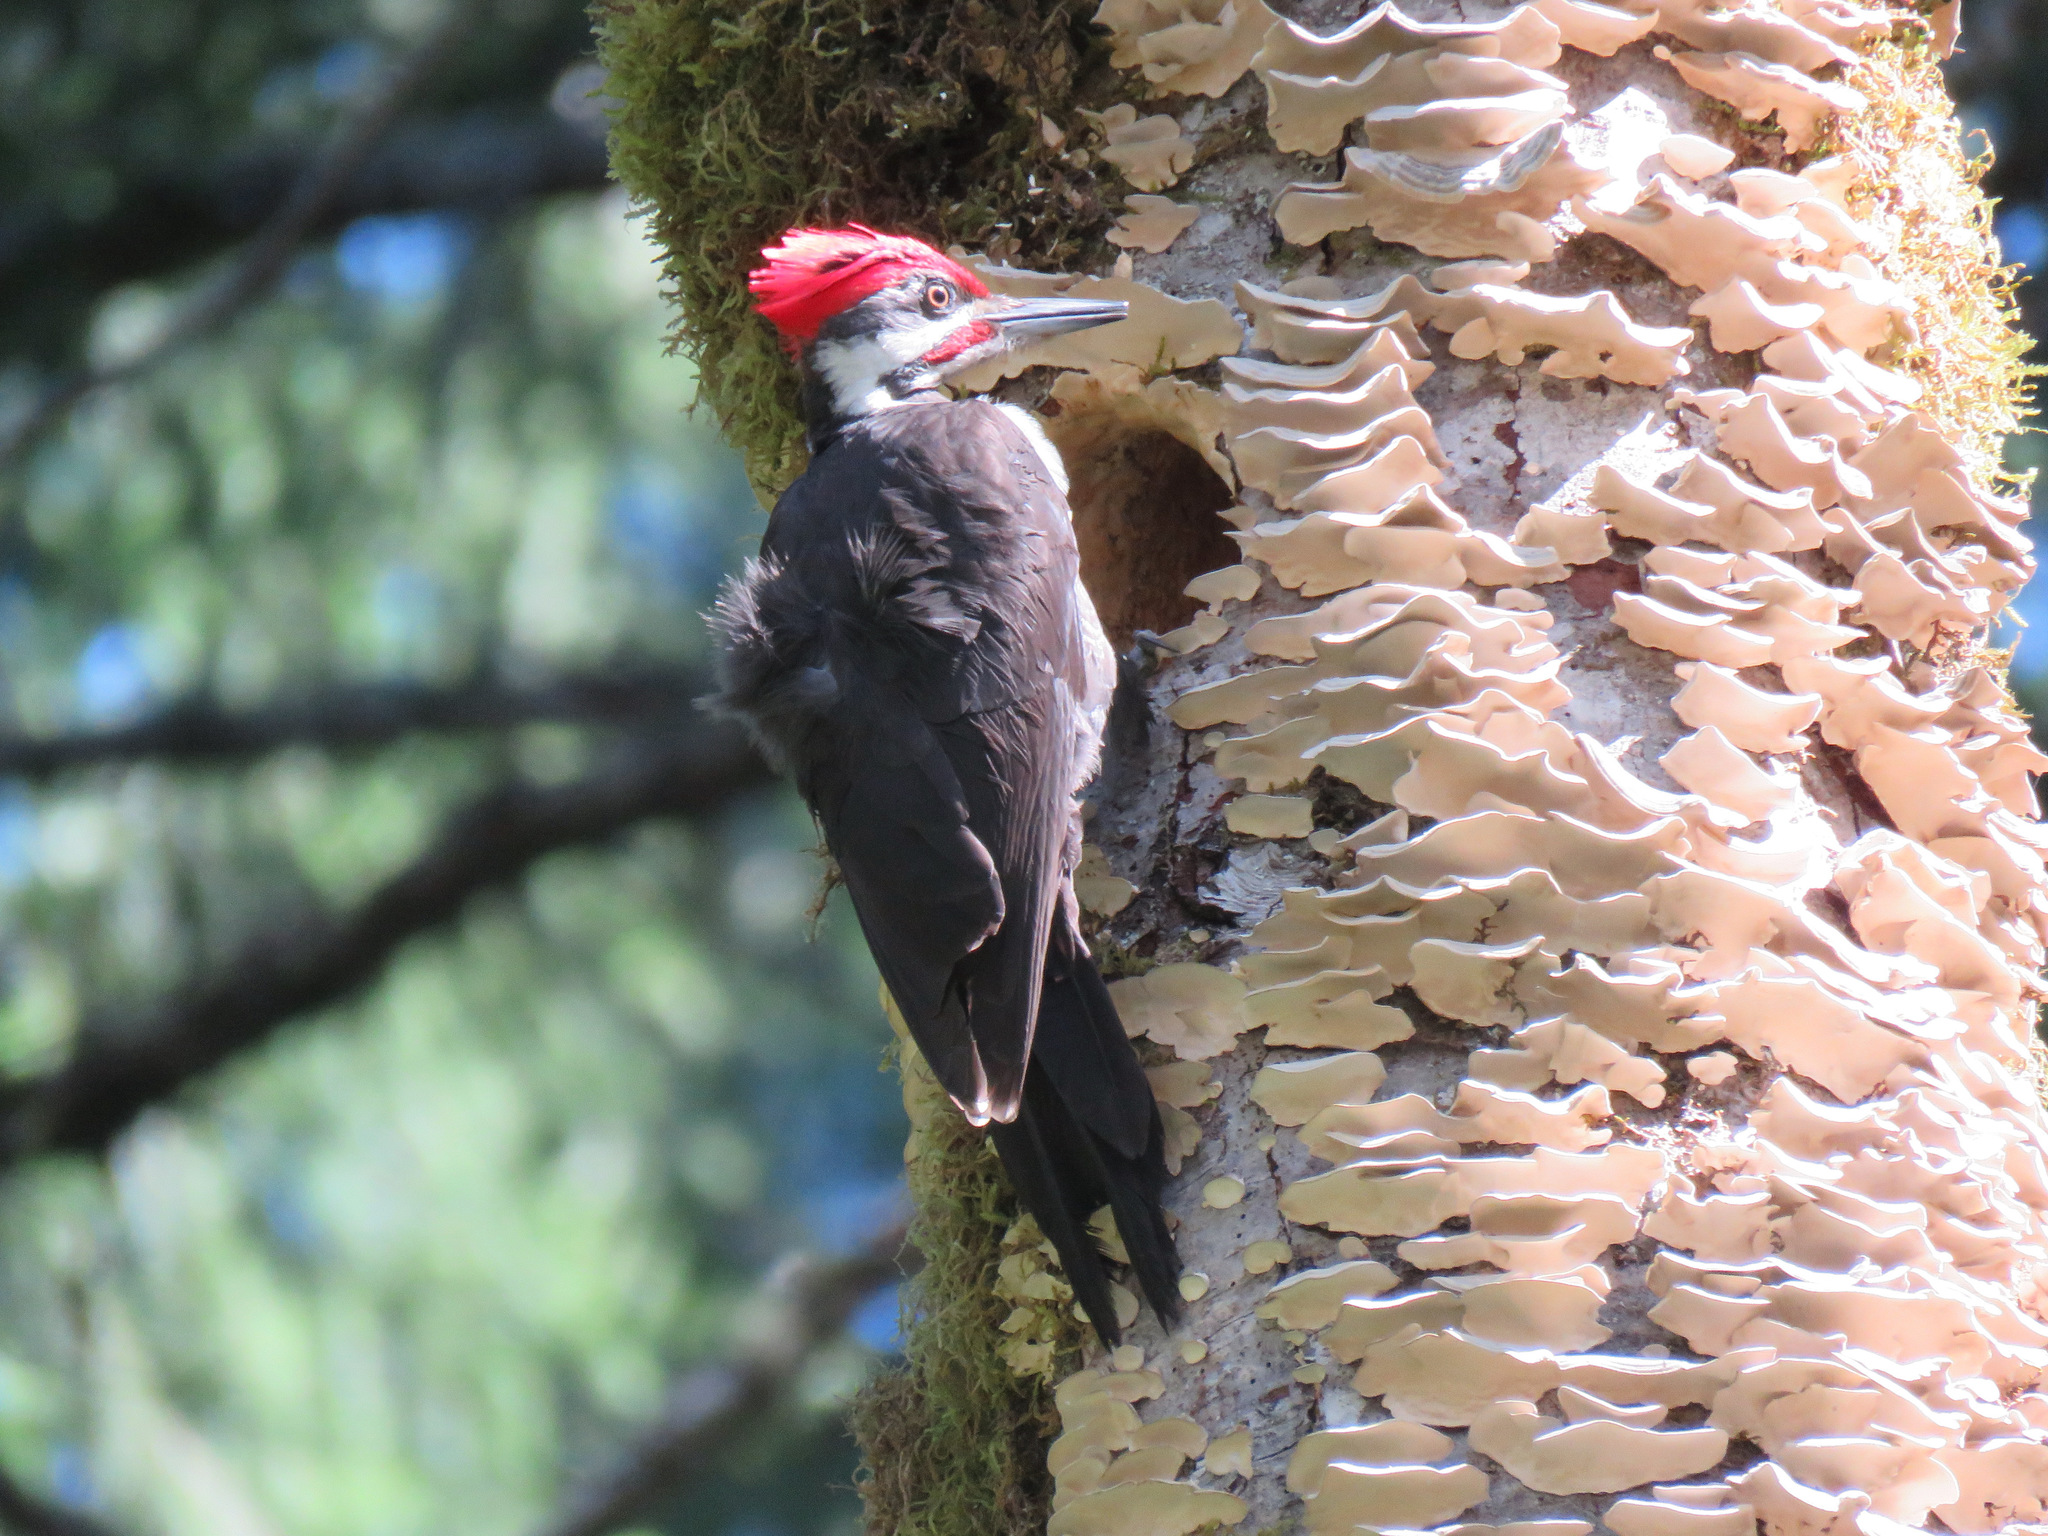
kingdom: Animalia
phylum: Chordata
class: Aves
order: Piciformes
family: Picidae
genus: Dryocopus
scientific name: Dryocopus pileatus
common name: Pileated woodpecker
